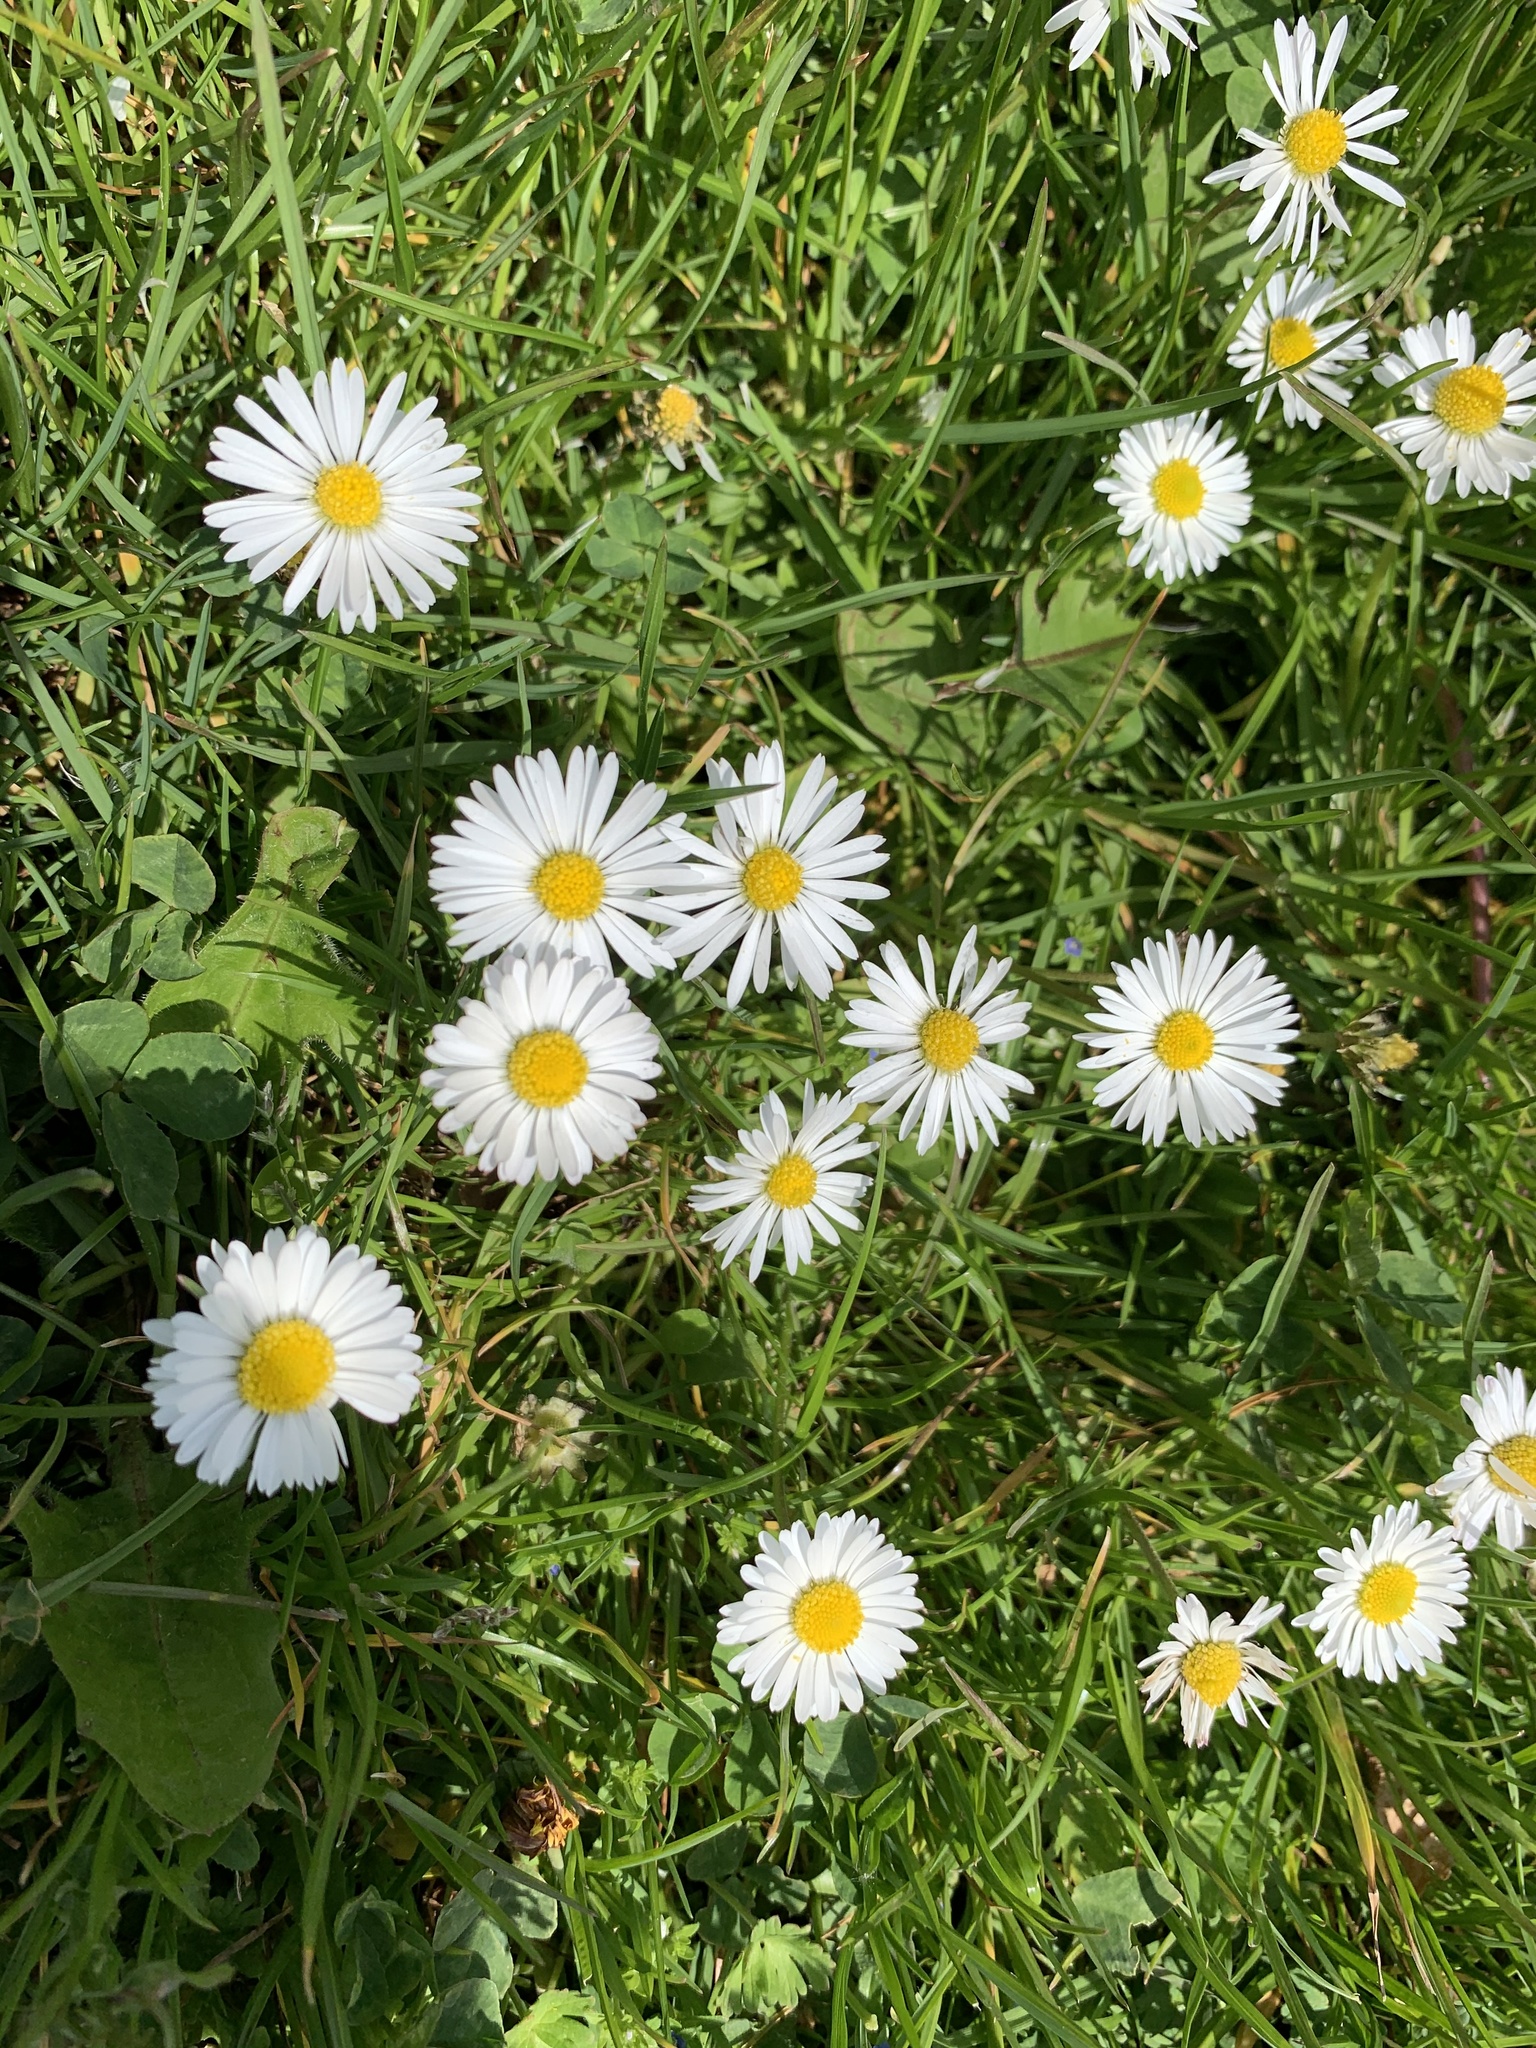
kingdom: Plantae
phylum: Tracheophyta
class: Magnoliopsida
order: Asterales
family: Asteraceae
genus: Bellis
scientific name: Bellis perennis
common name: Lawndaisy
